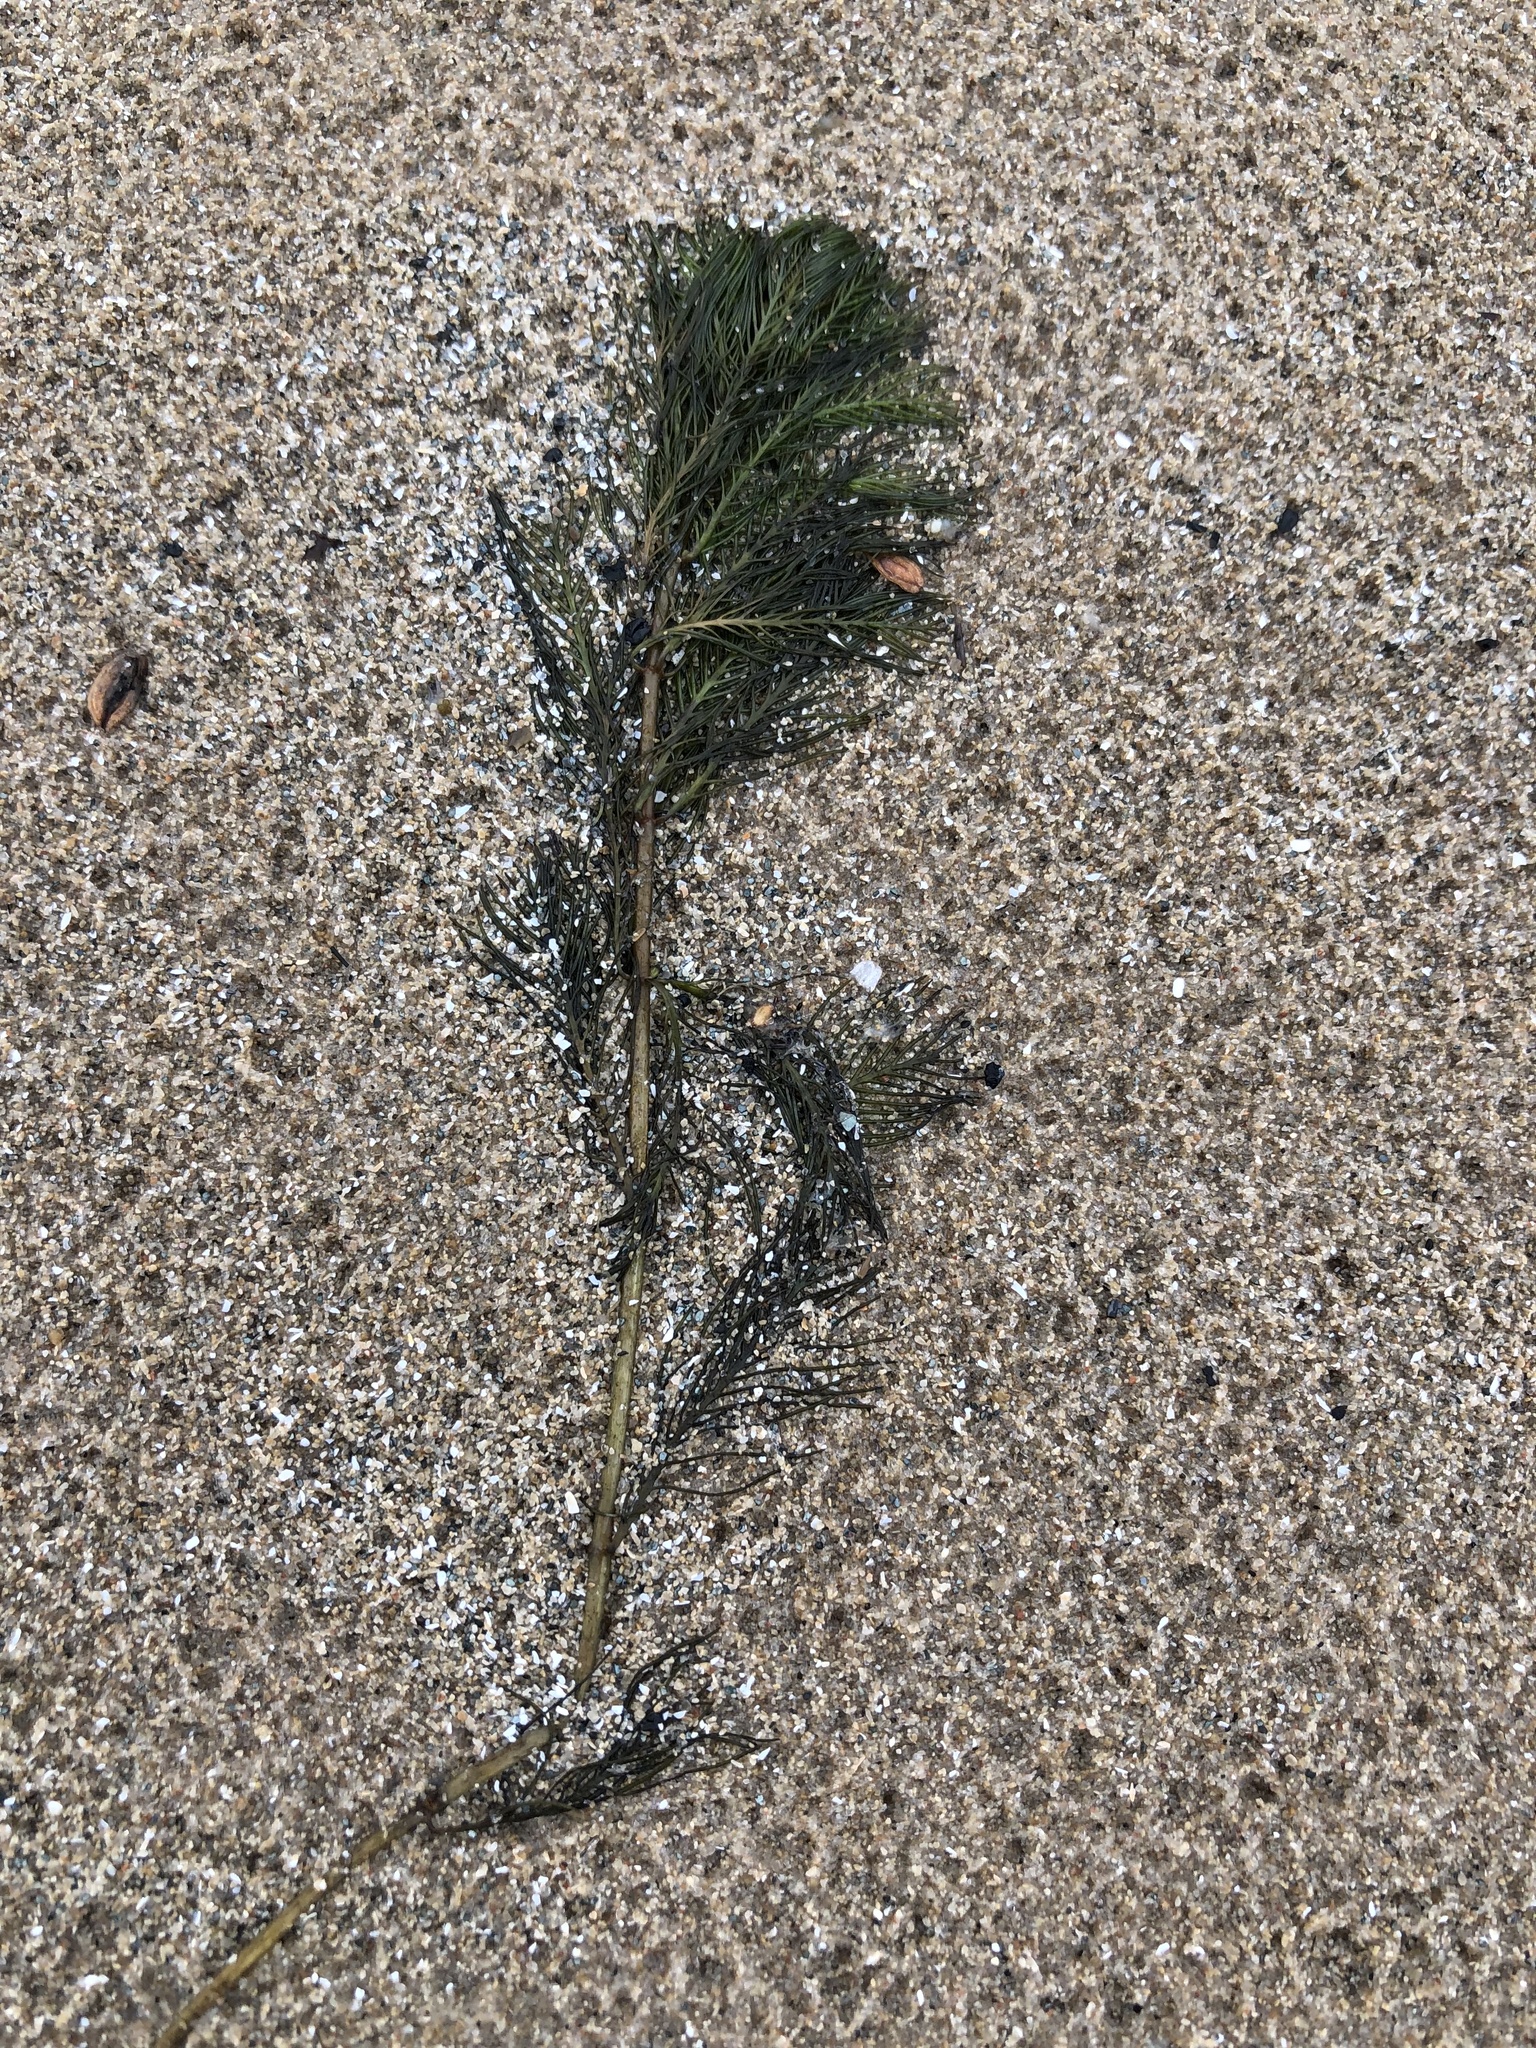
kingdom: Plantae
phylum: Tracheophyta
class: Magnoliopsida
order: Saxifragales
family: Haloragaceae
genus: Myriophyllum
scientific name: Myriophyllum spicatum
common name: Spiked water-milfoil
